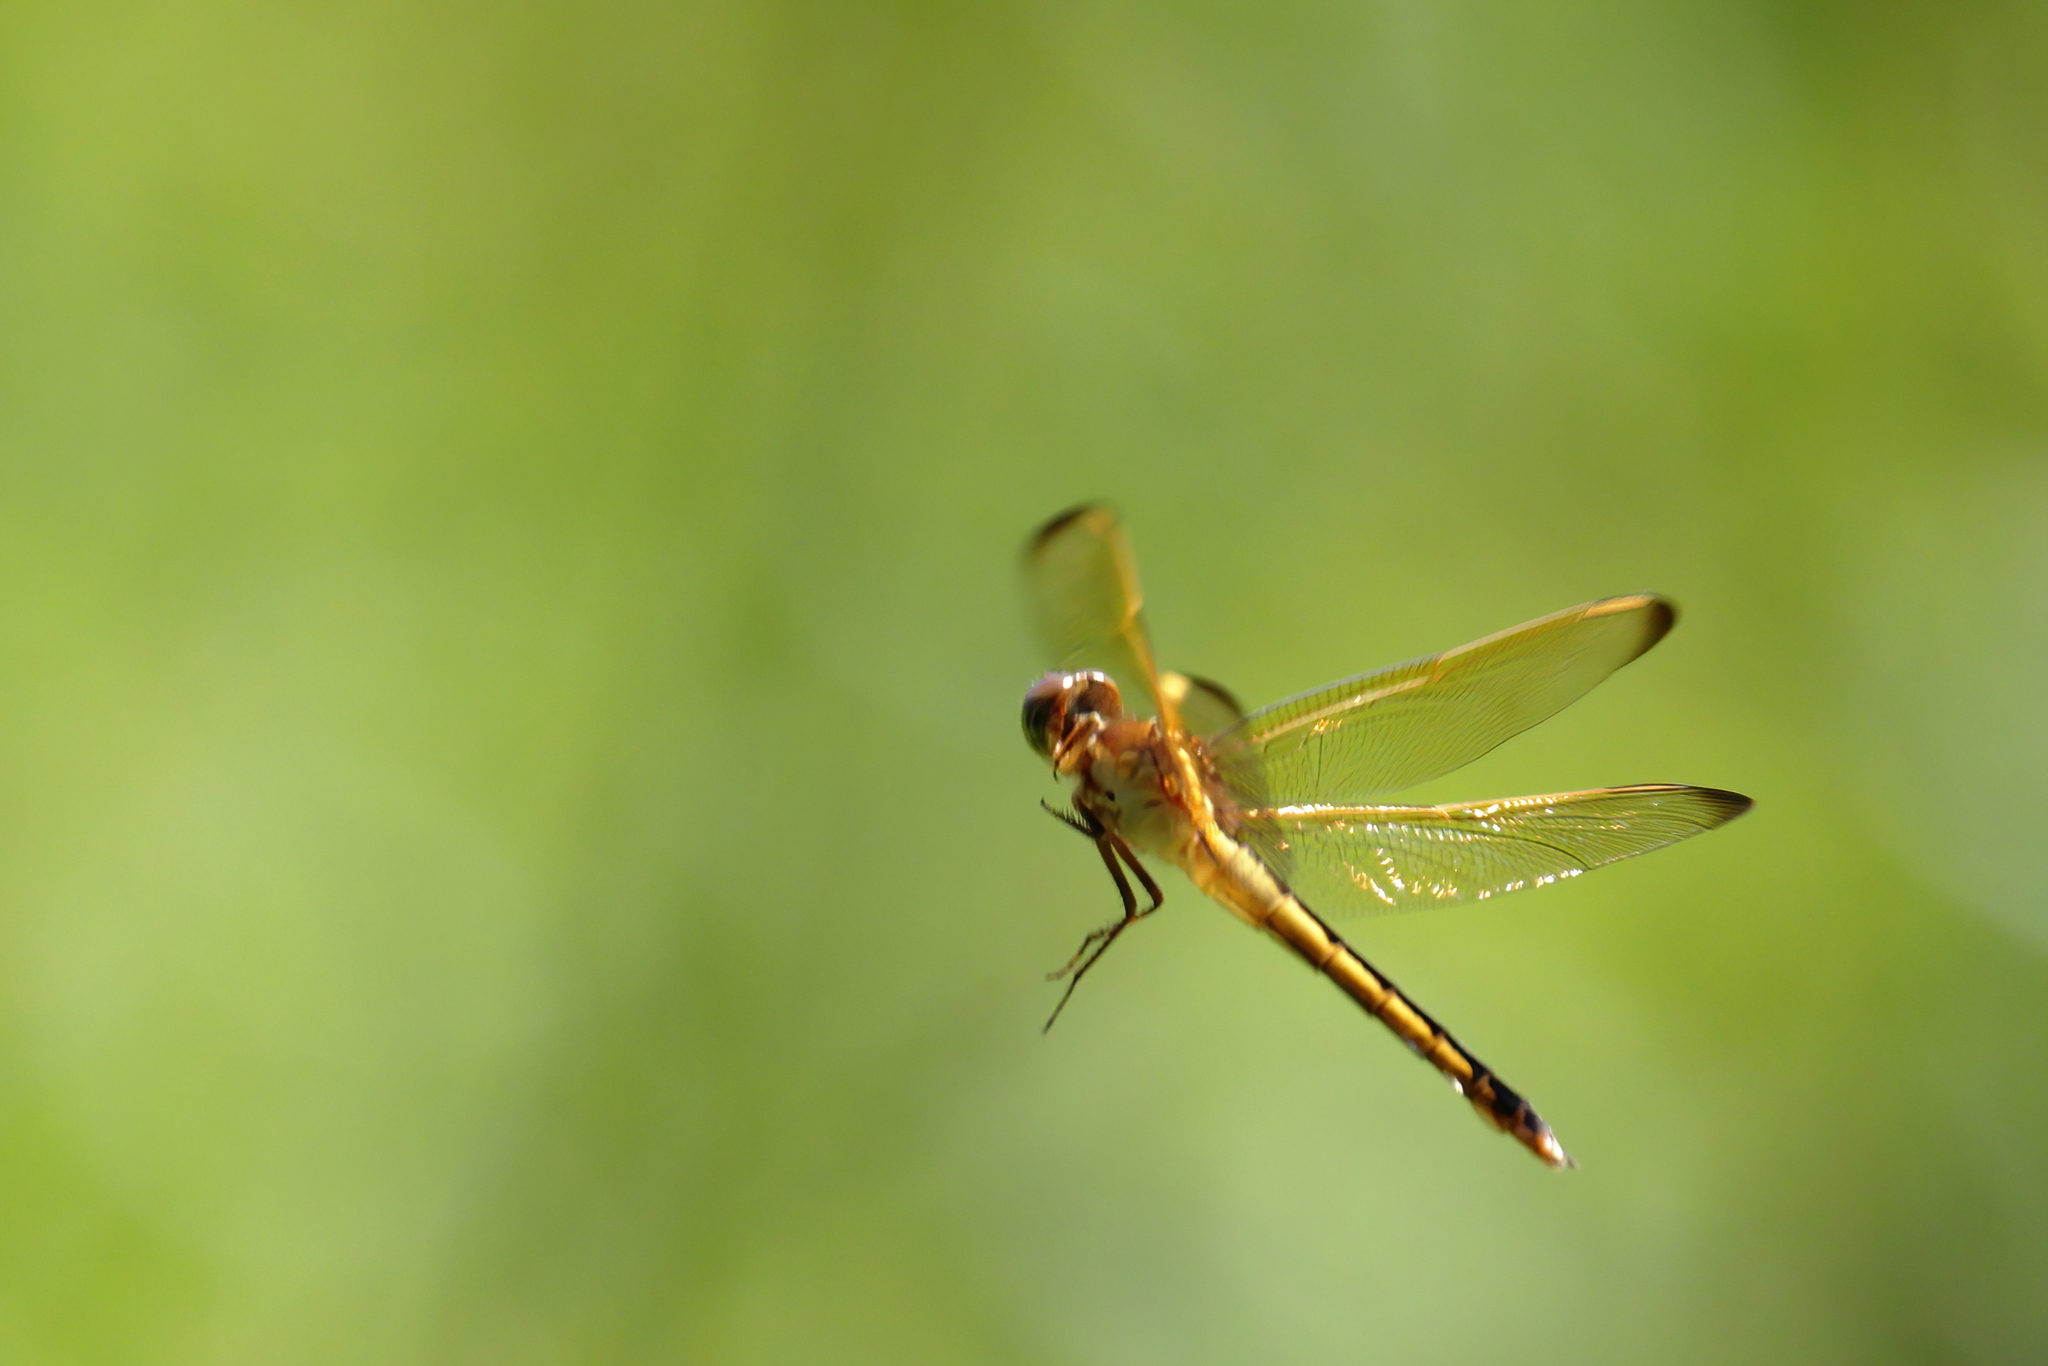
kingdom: Animalia
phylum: Arthropoda
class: Insecta
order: Odonata
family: Libellulidae
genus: Libellula
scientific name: Libellula needhami
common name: Needham's skimmer
